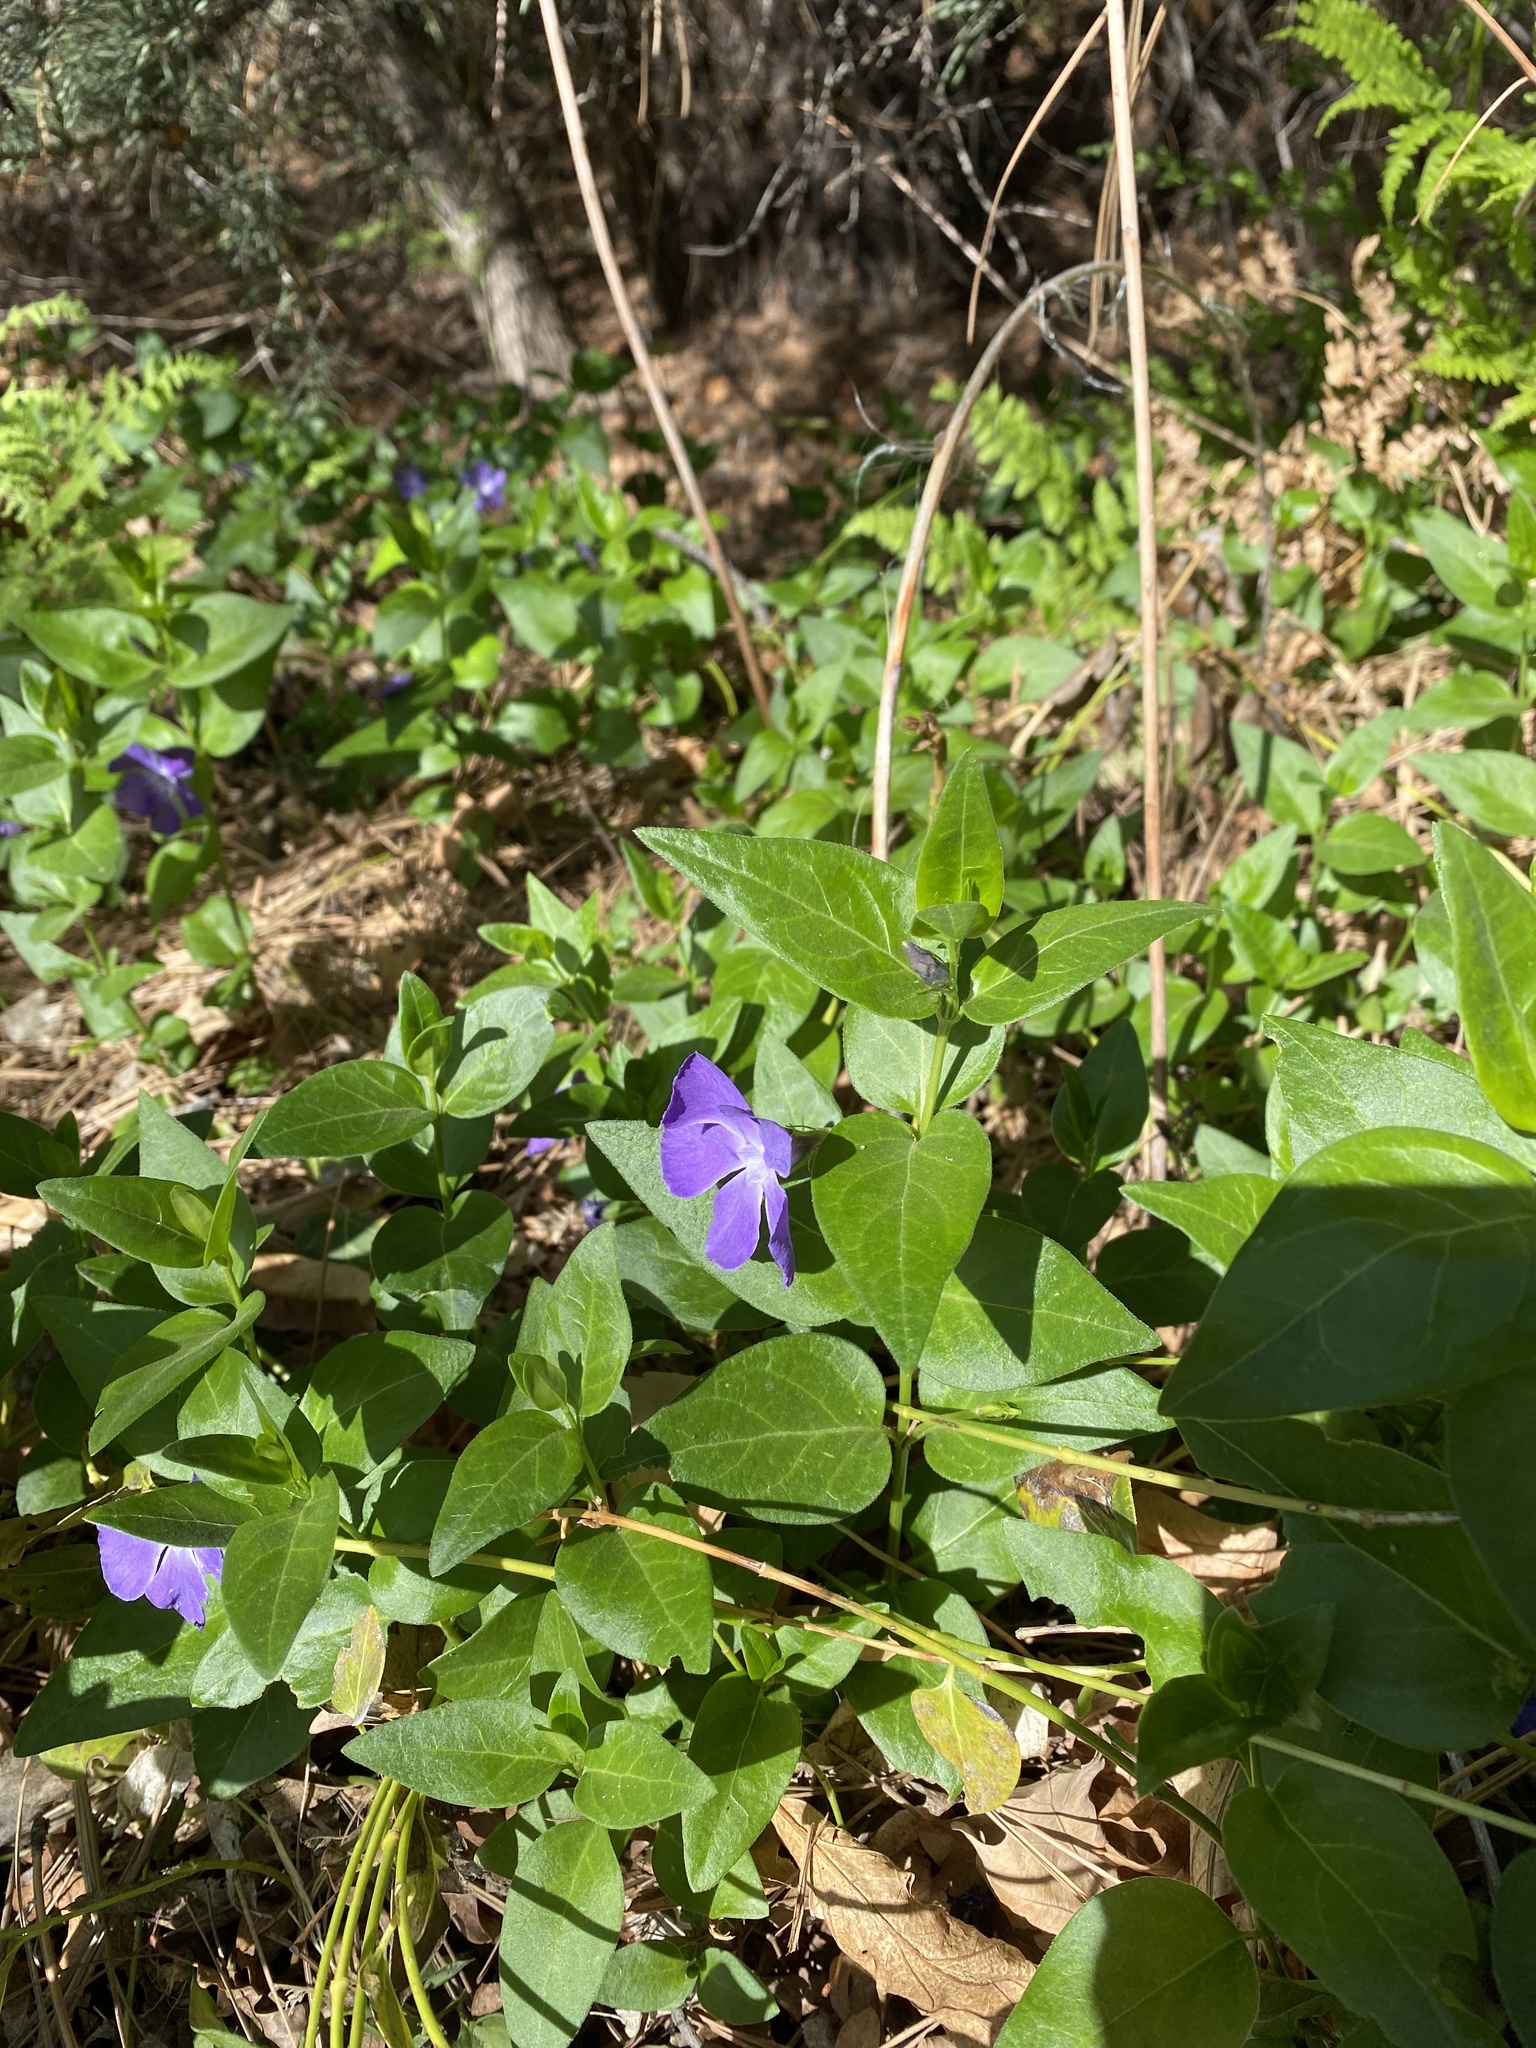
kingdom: Plantae
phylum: Tracheophyta
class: Magnoliopsida
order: Gentianales
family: Apocynaceae
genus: Vinca
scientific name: Vinca major
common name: Greater periwinkle
